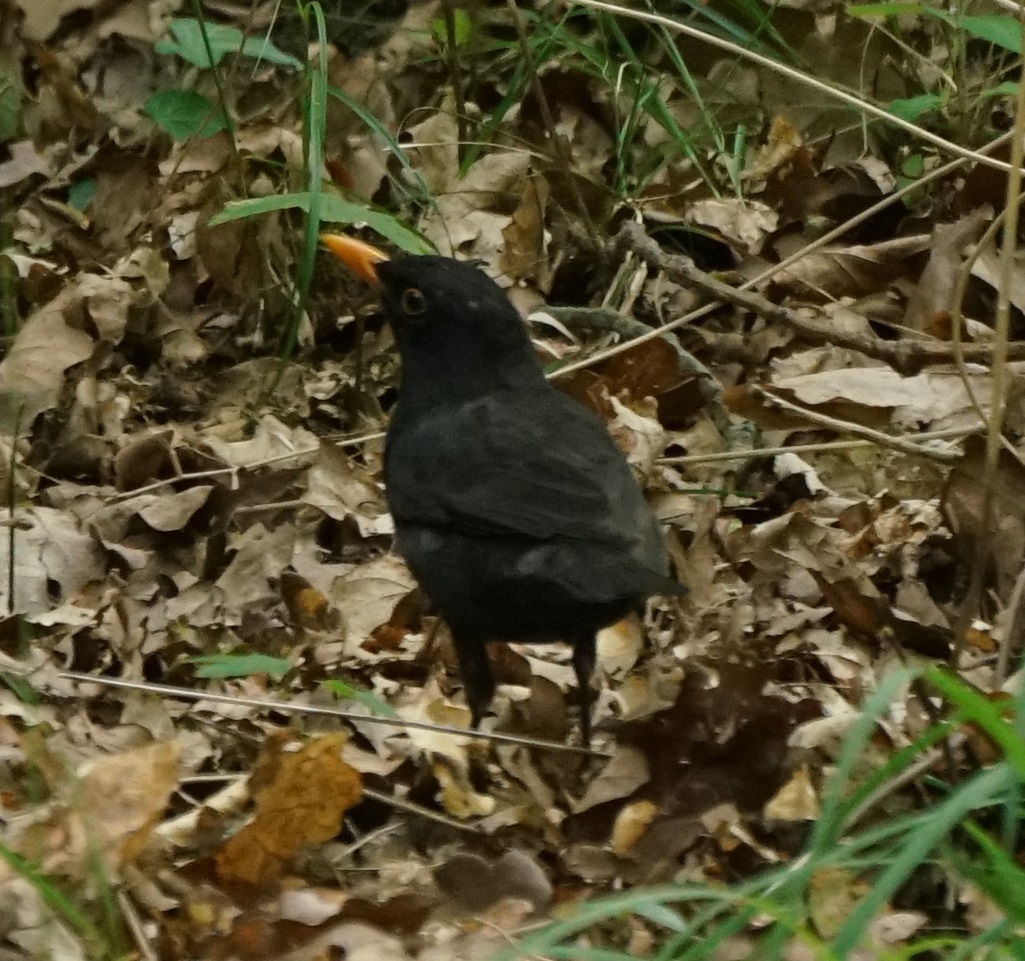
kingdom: Animalia
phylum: Chordata
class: Aves
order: Passeriformes
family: Turdidae
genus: Turdus
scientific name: Turdus merula
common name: Common blackbird
